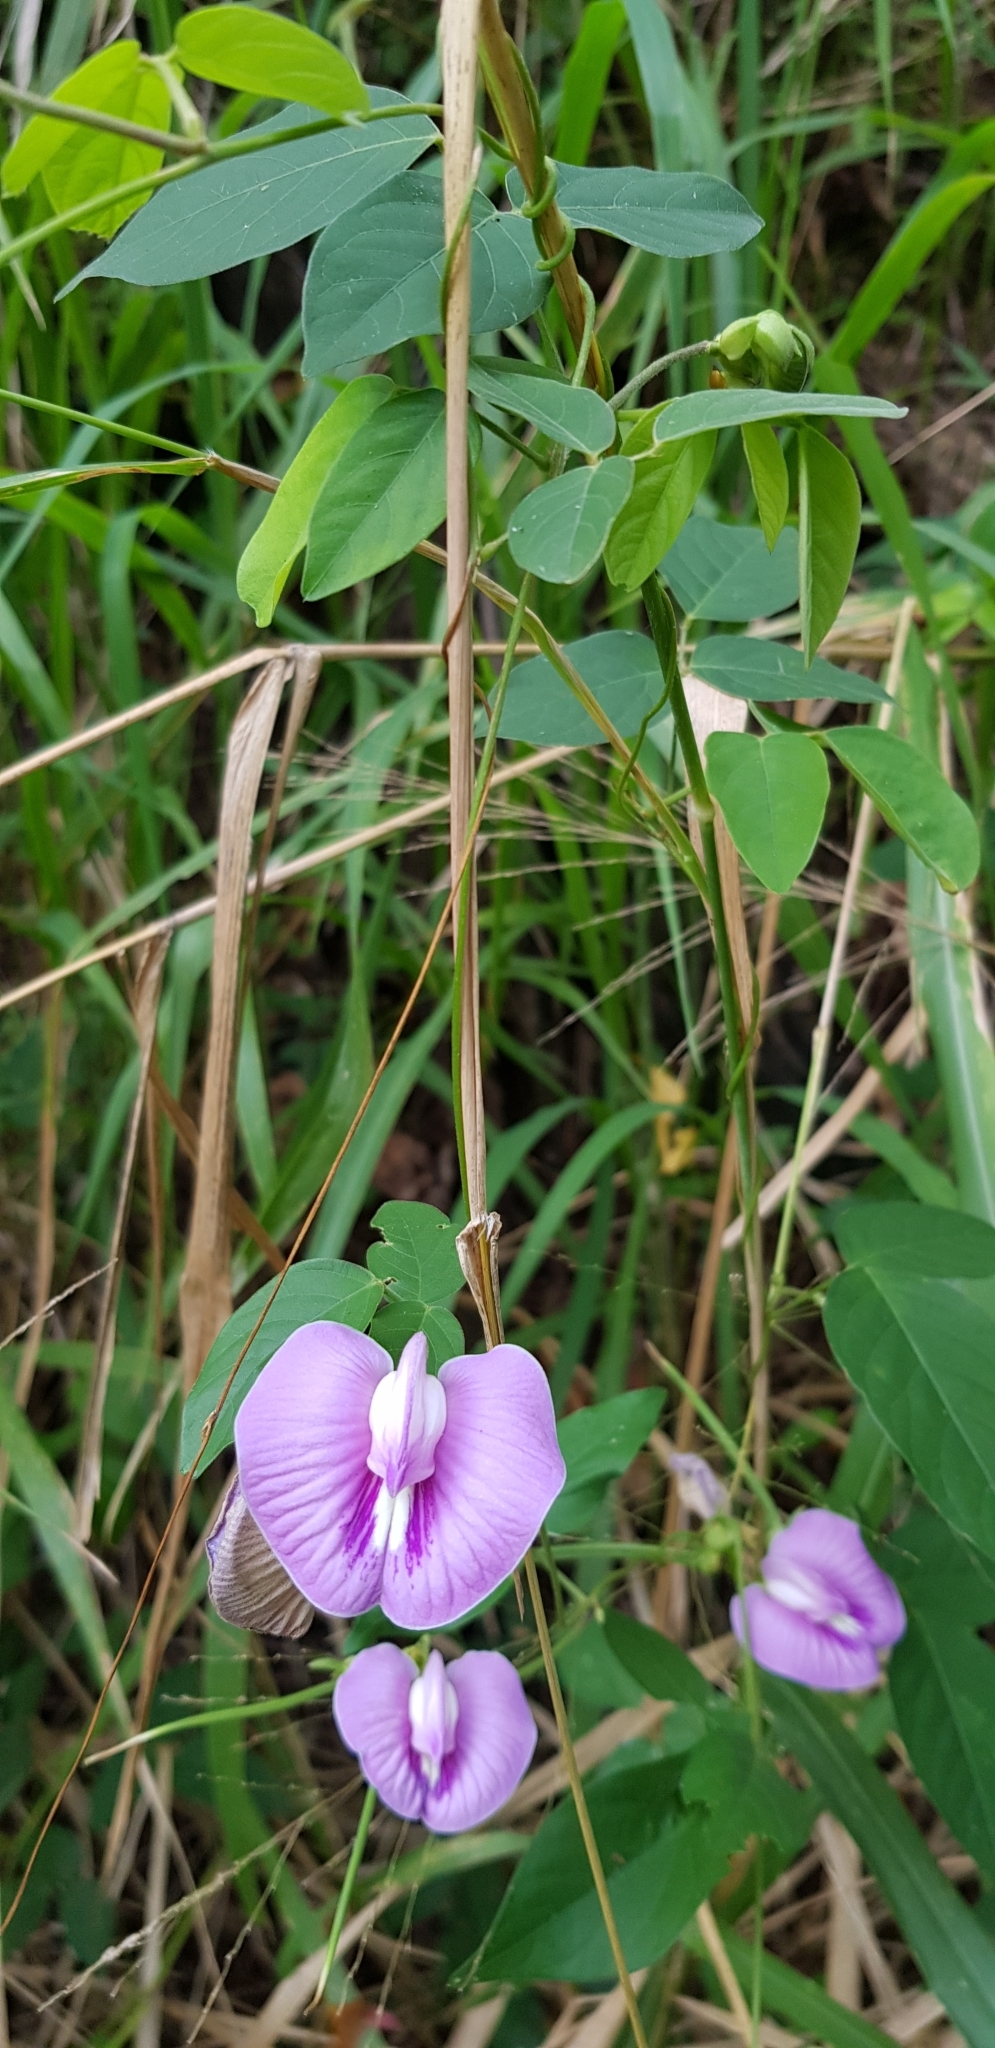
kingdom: Plantae
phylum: Tracheophyta
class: Magnoliopsida
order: Fabales
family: Fabaceae
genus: Centrosema
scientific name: Centrosema virginianum
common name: Butterfly-pea
